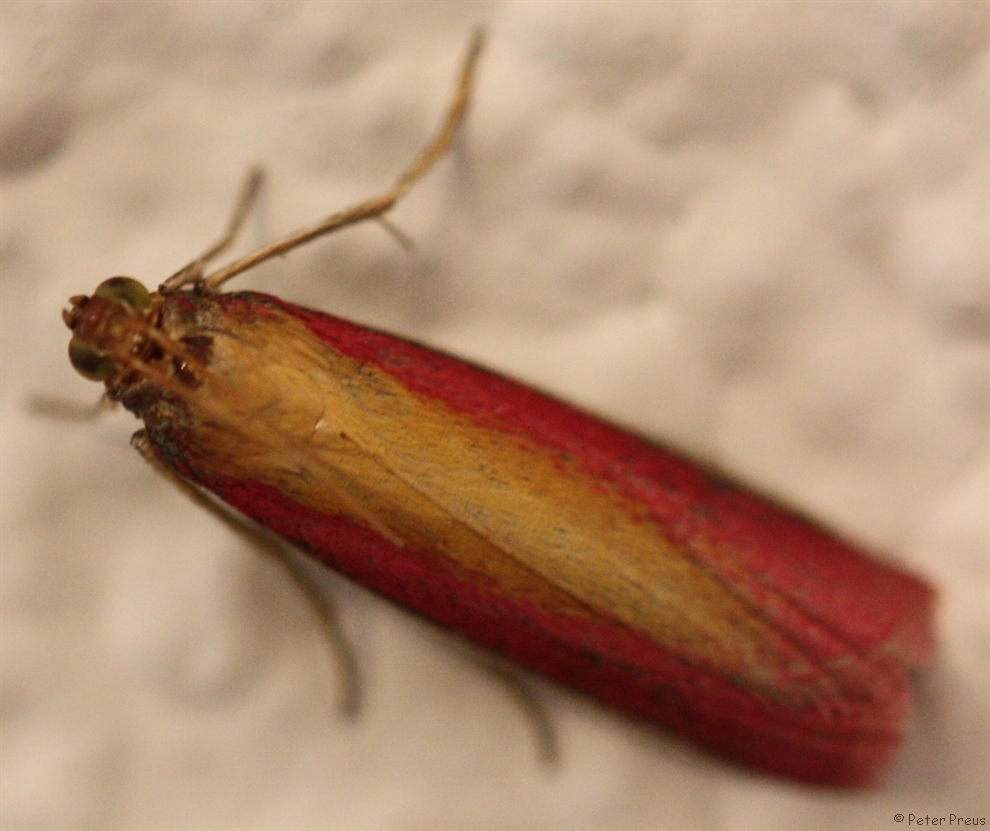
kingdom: Animalia
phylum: Arthropoda
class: Insecta
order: Lepidoptera
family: Pyralidae
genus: Oncocera
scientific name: Oncocera semirubella
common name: Rosy-striped knot-horn
